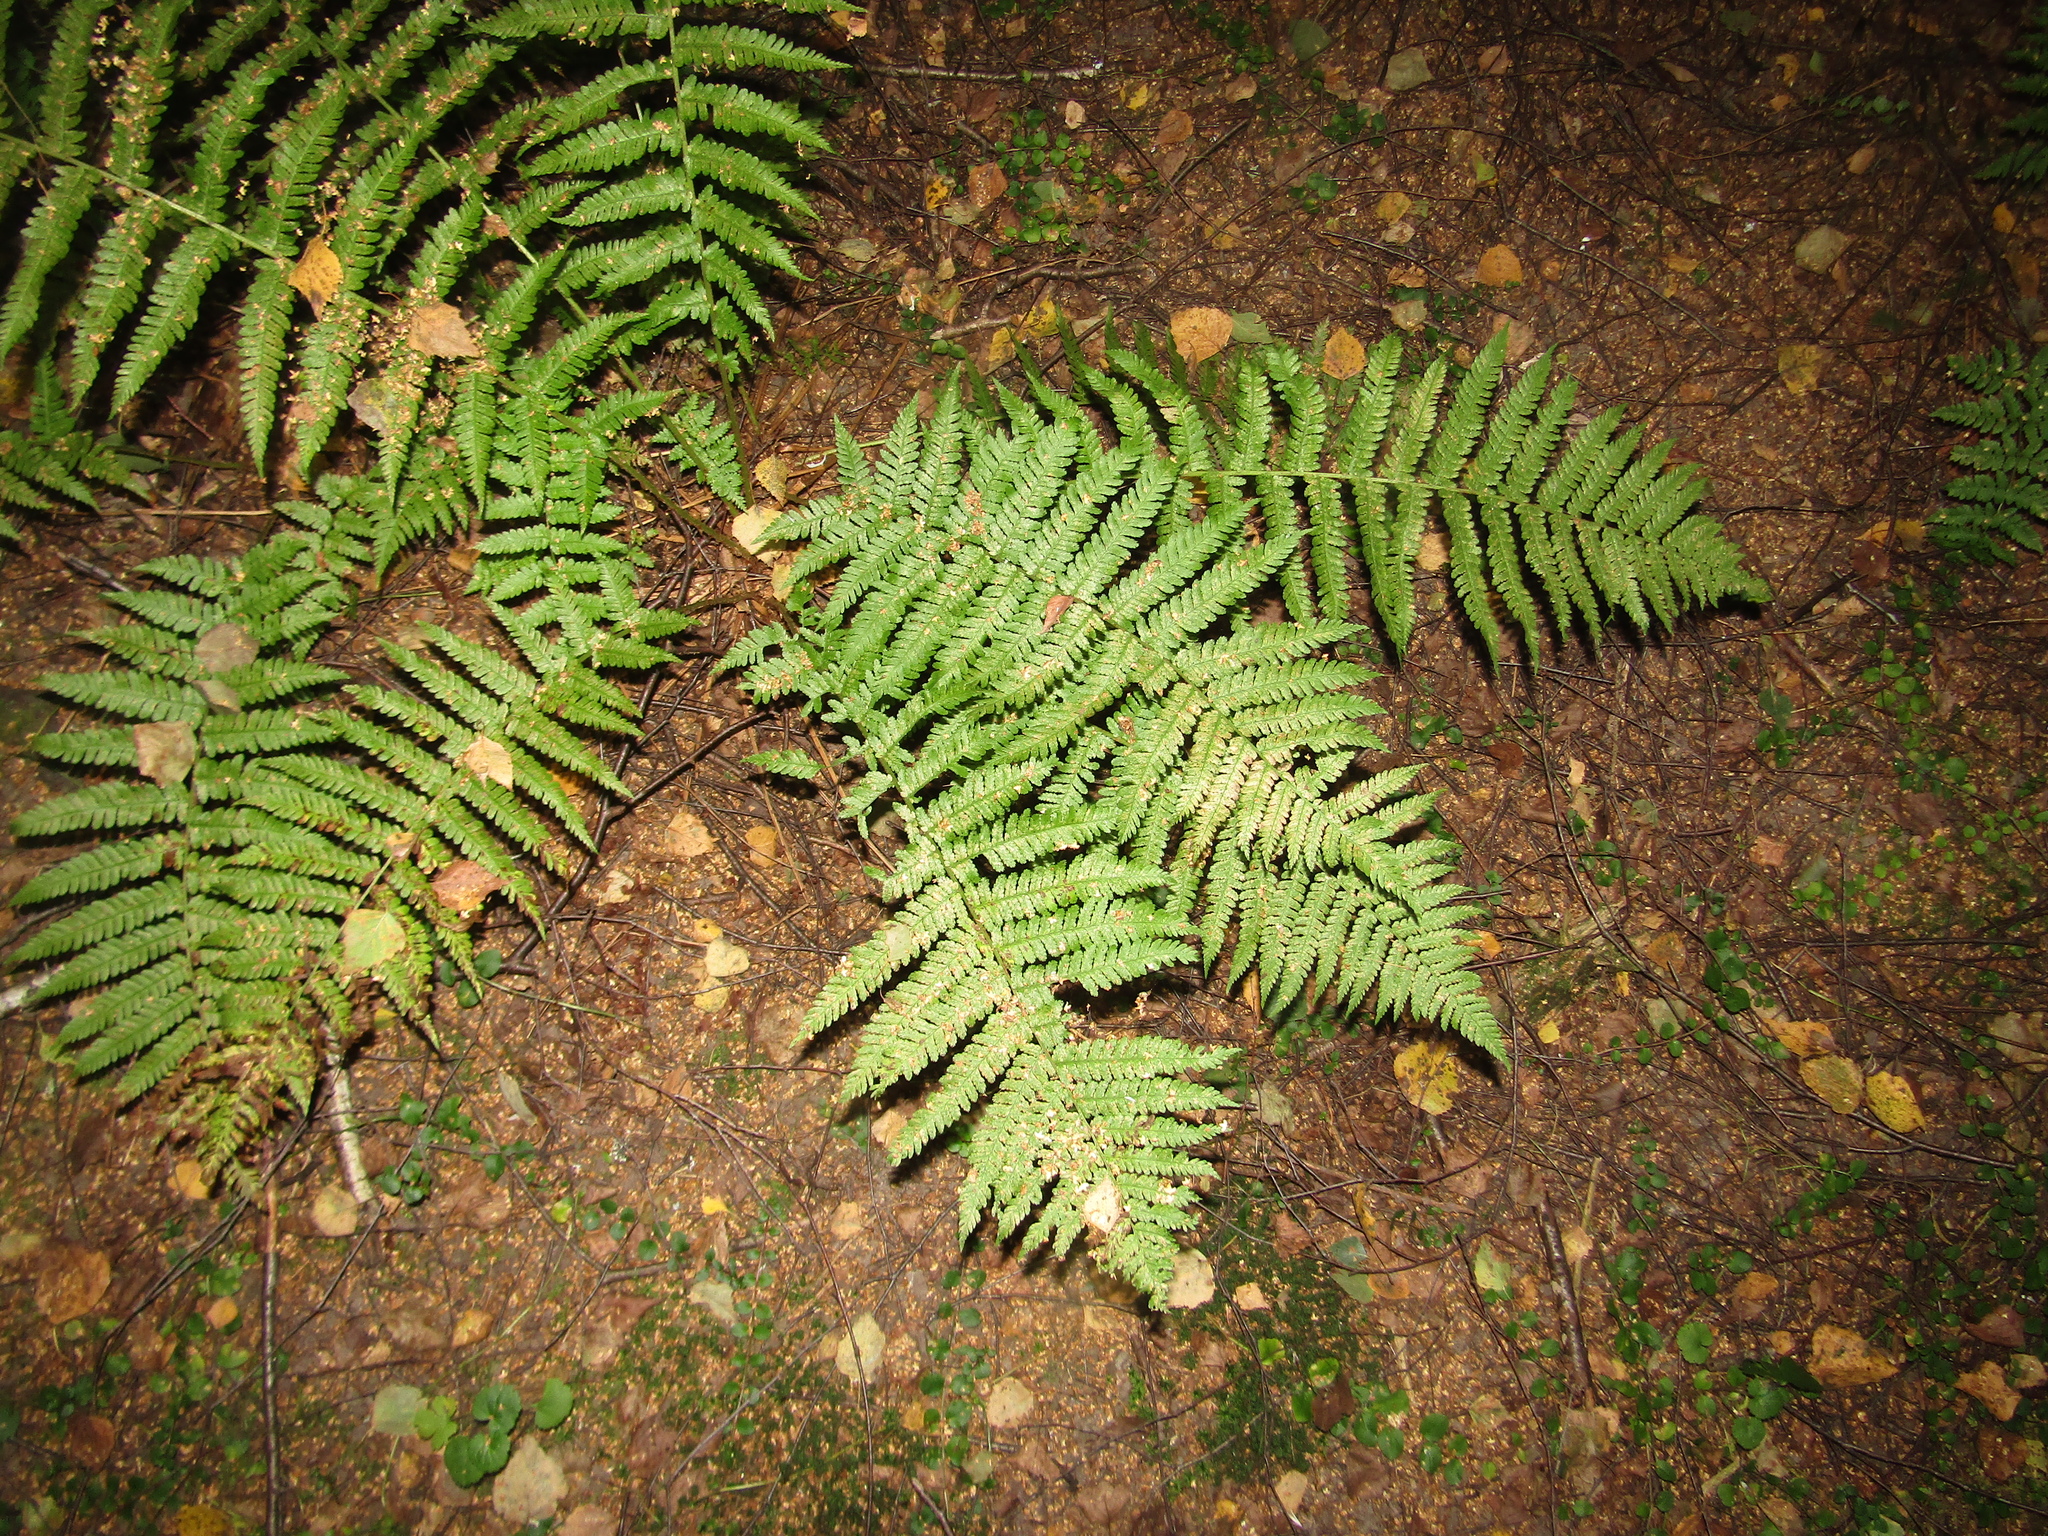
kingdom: Plantae
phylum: Tracheophyta
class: Polypodiopsida
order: Polypodiales
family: Dryopteridaceae
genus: Dryopteris
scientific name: Dryopteris filix-mas
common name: Male fern
